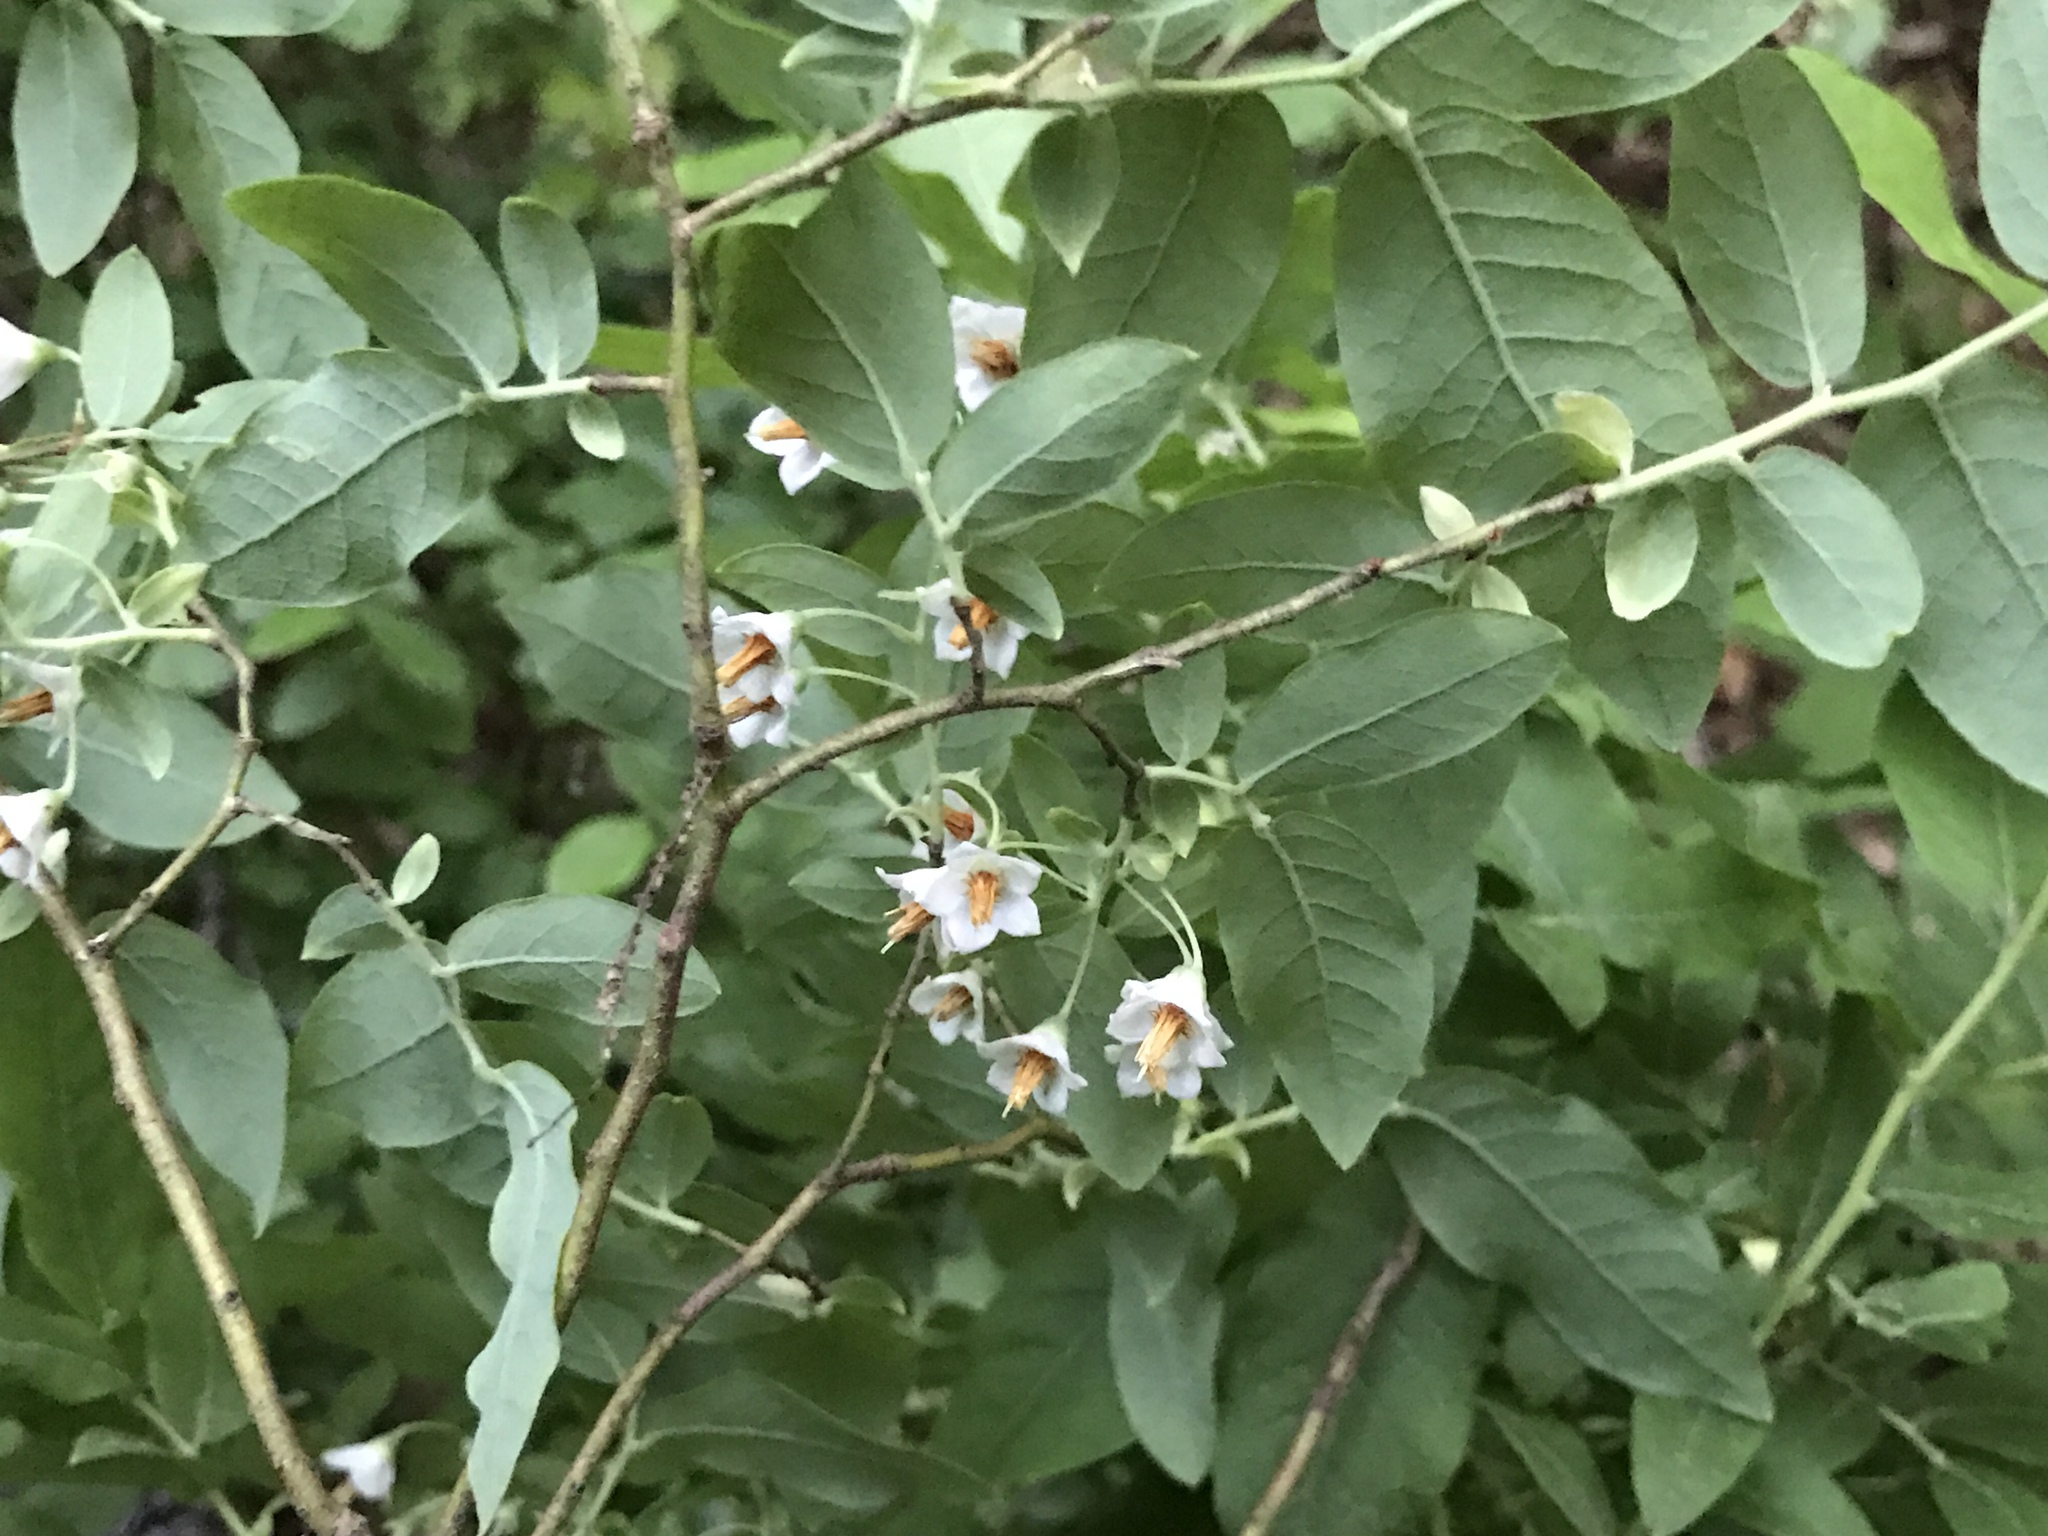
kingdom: Plantae
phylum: Tracheophyta
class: Magnoliopsida
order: Ericales
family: Ericaceae
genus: Vaccinium
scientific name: Vaccinium stamineum
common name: Deerberry
